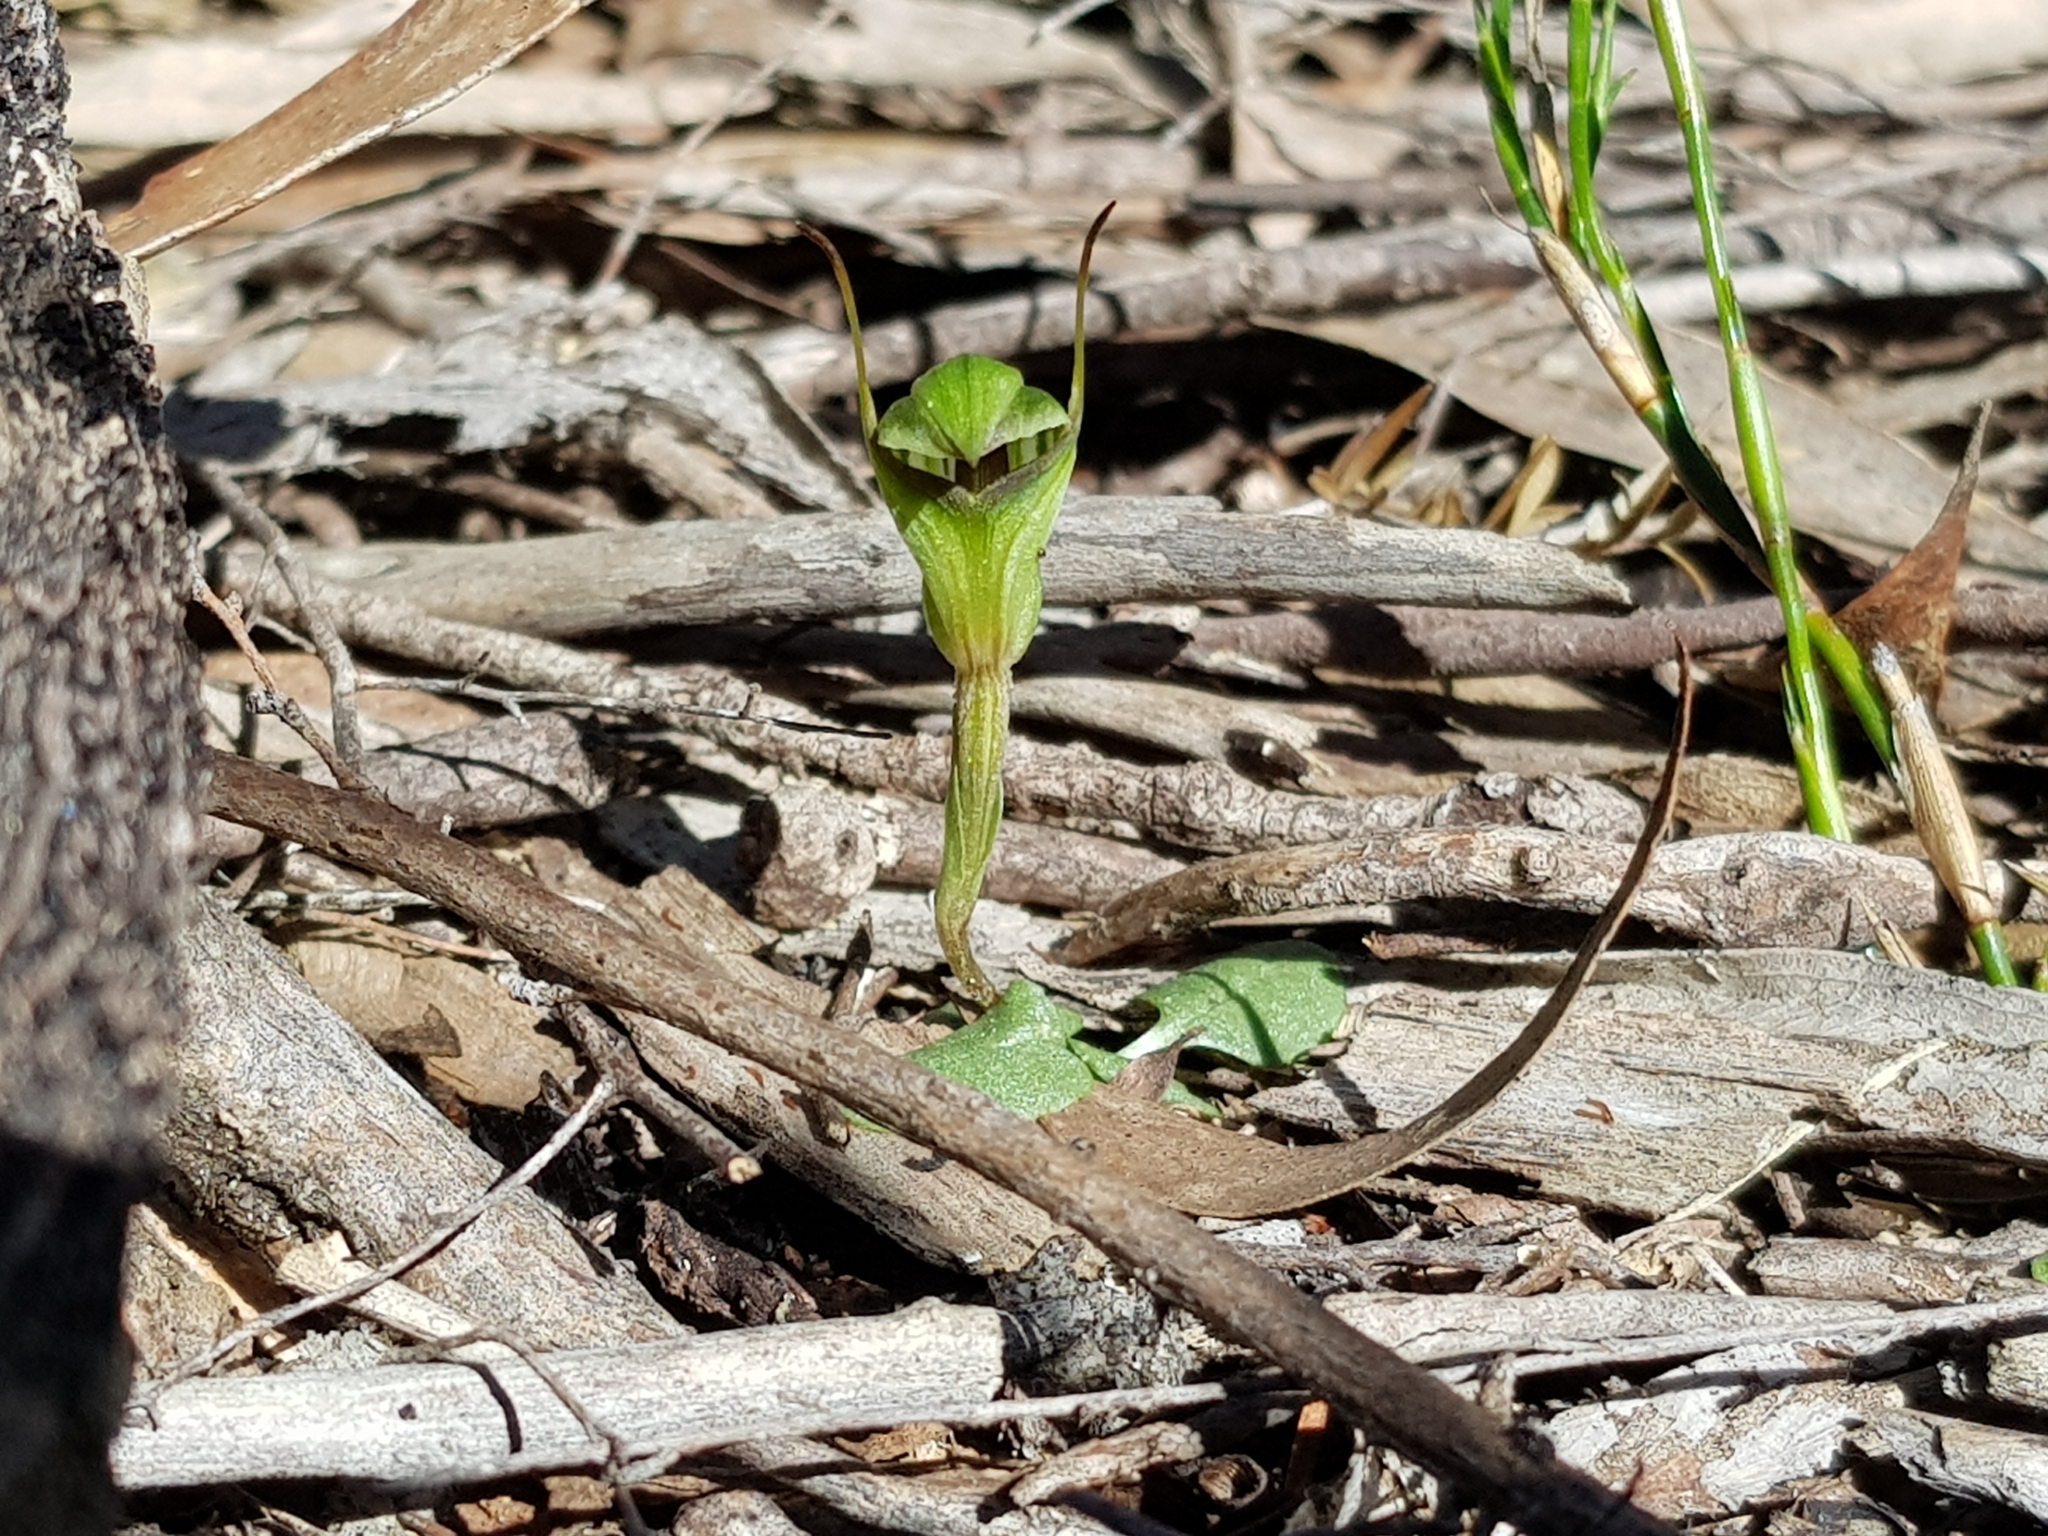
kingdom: Plantae
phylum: Tracheophyta
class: Liliopsida
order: Asparagales
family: Orchidaceae
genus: Pterostylis
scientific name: Pterostylis concinna
